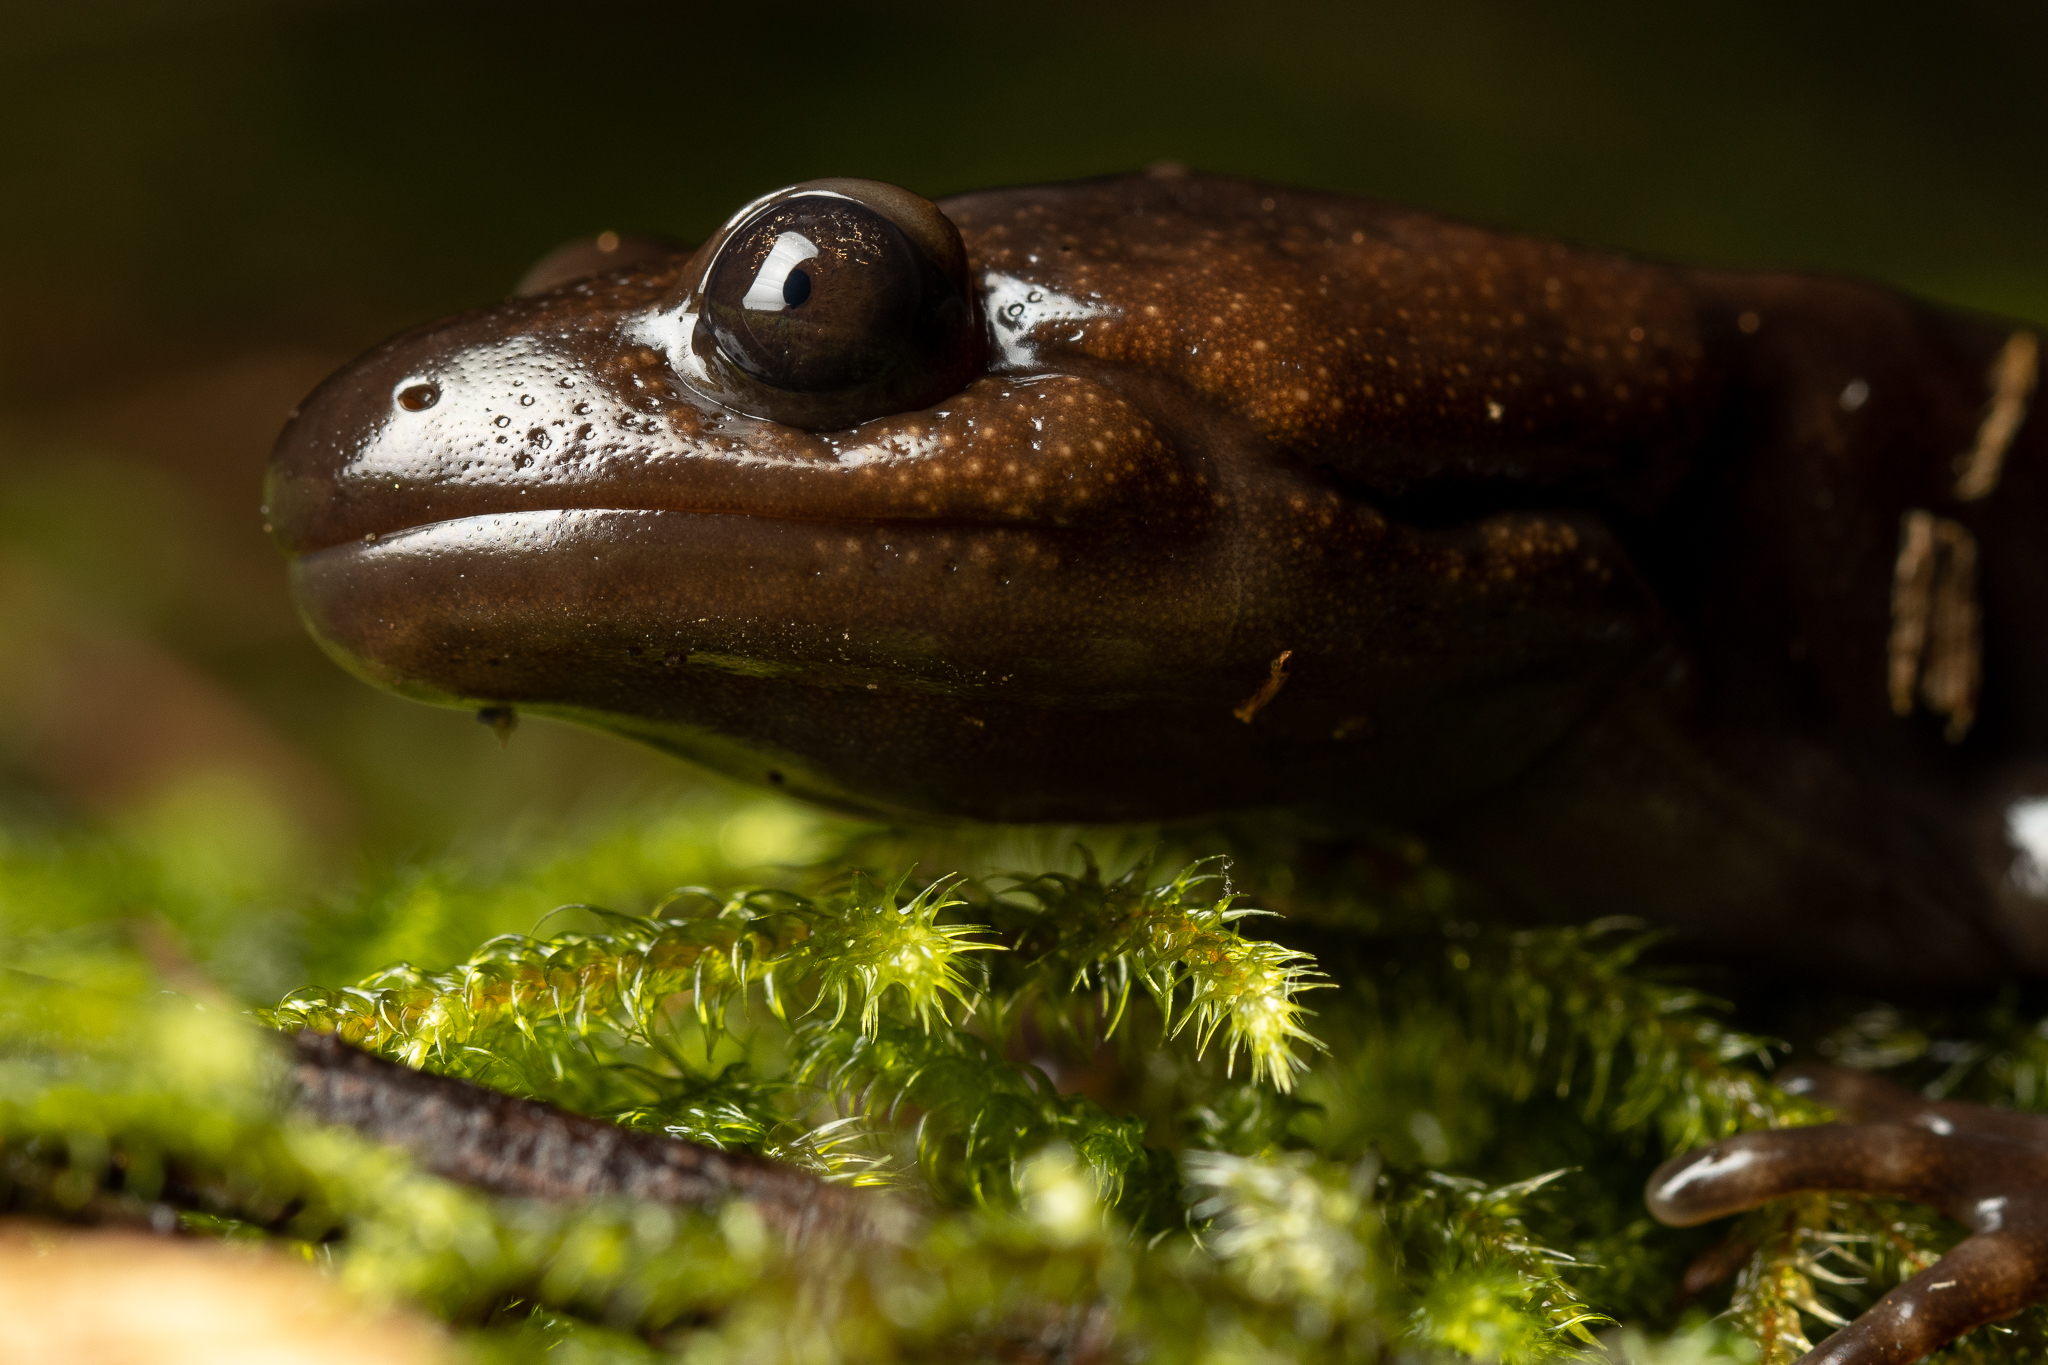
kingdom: Animalia
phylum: Chordata
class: Amphibia
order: Caudata
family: Ambystomatidae
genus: Ambystoma
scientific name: Ambystoma gracile
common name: Northwestern salamander
